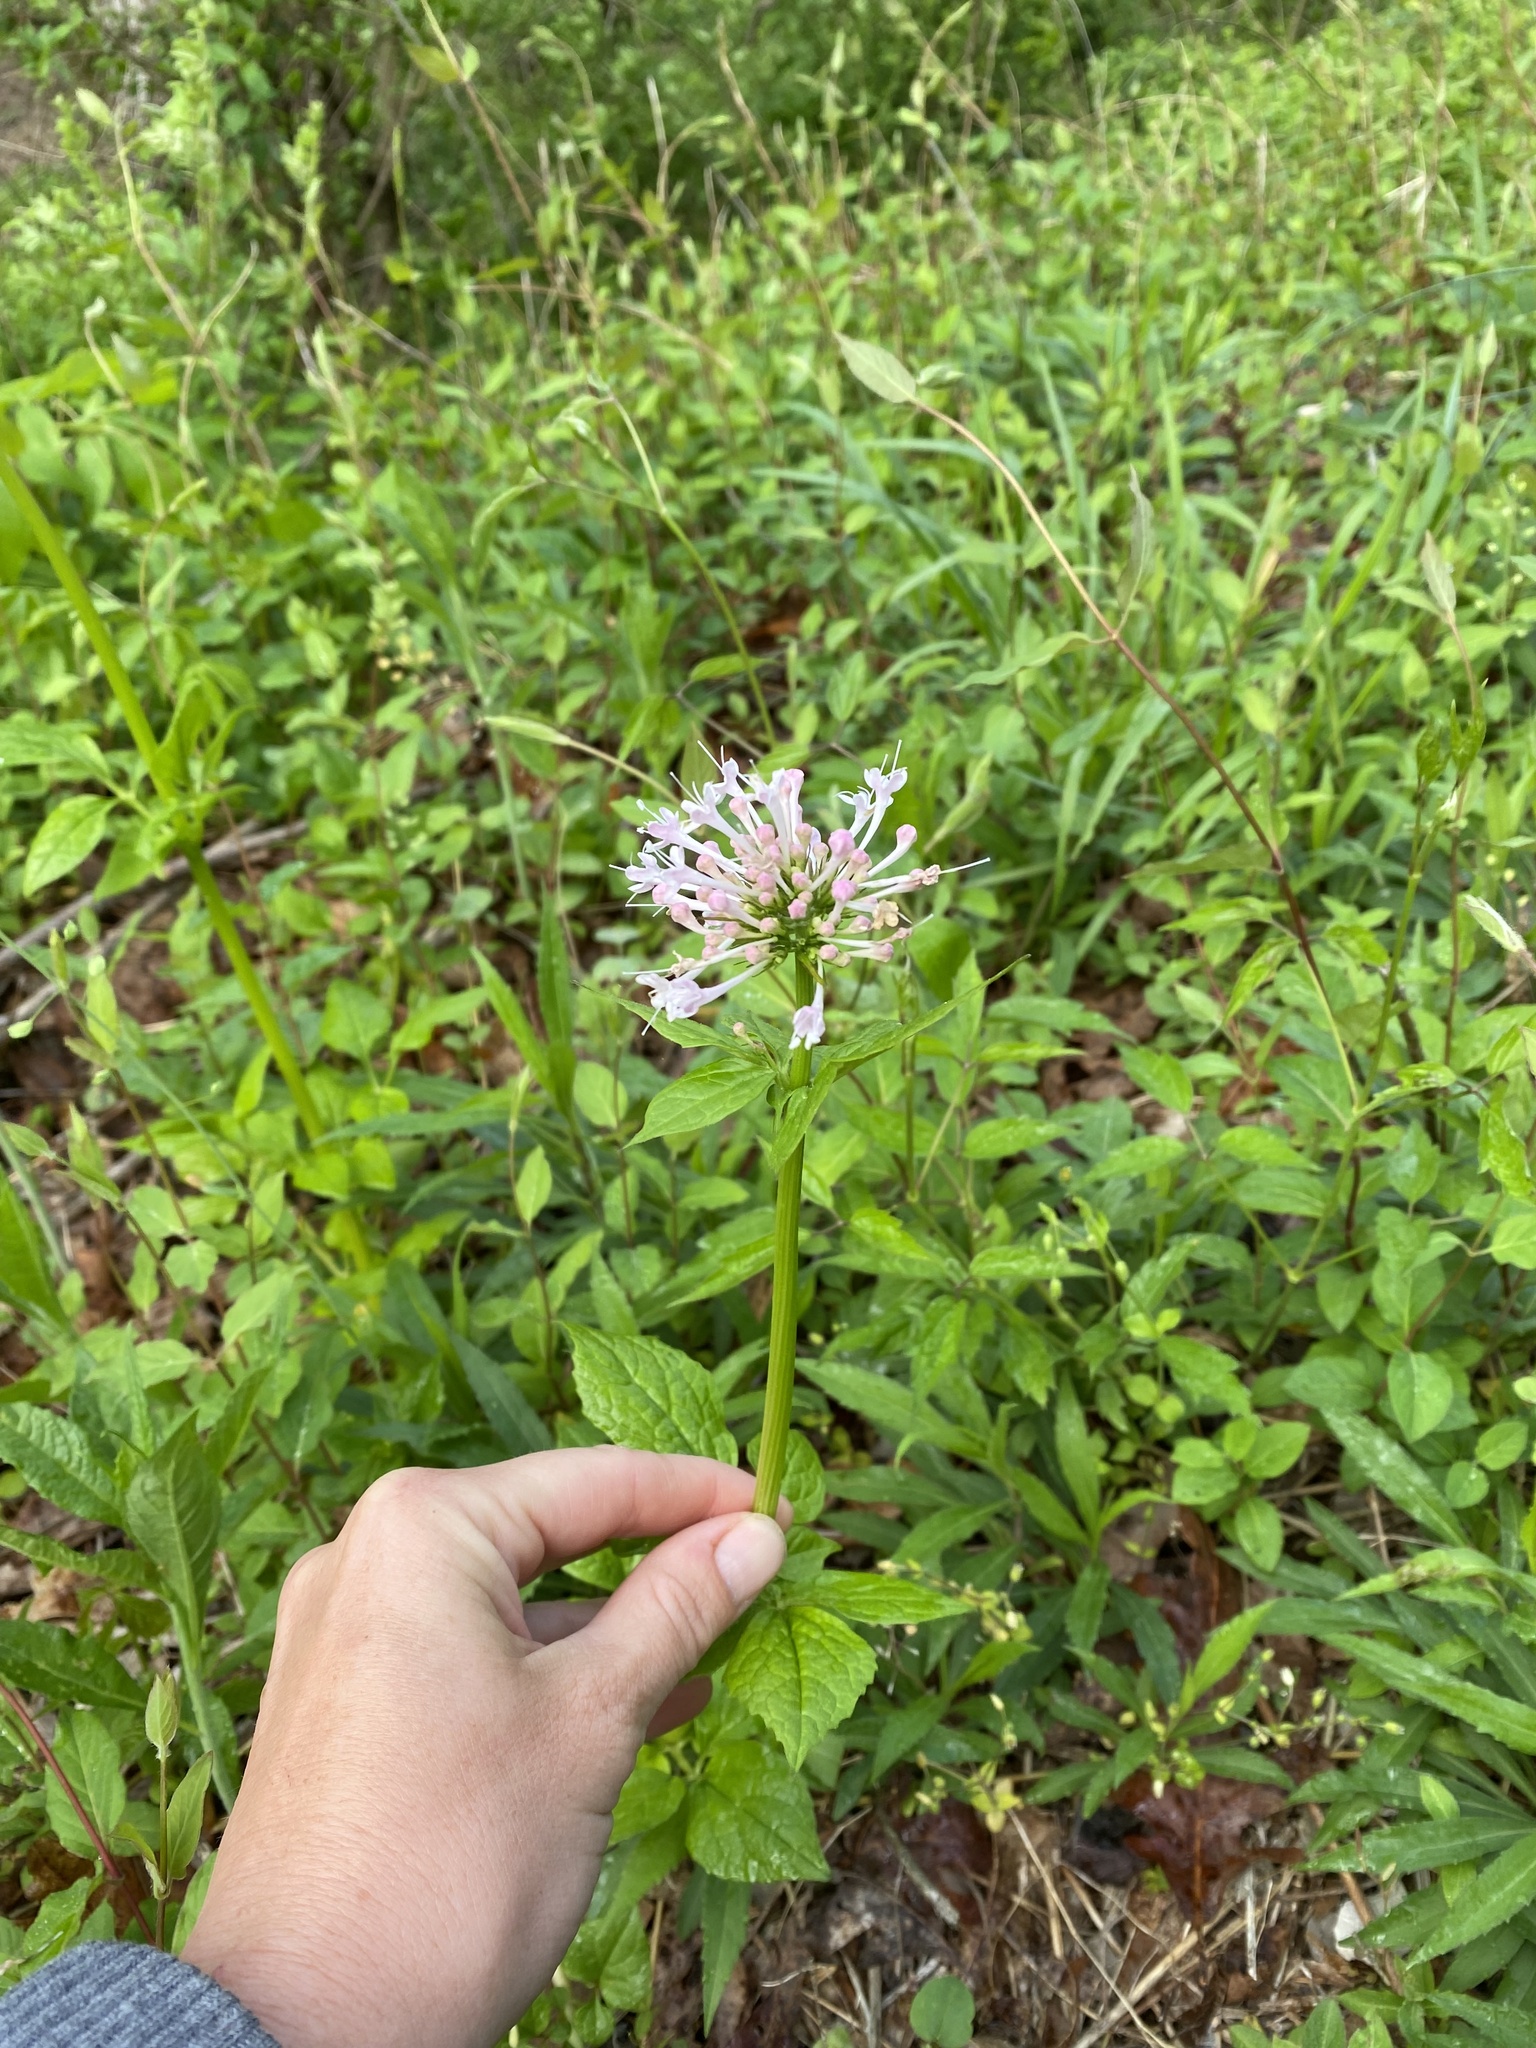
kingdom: Plantae
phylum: Tracheophyta
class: Magnoliopsida
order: Dipsacales
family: Caprifoliaceae
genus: Valeriana
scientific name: Valeriana pauciflora
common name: Long-tube valeriana
